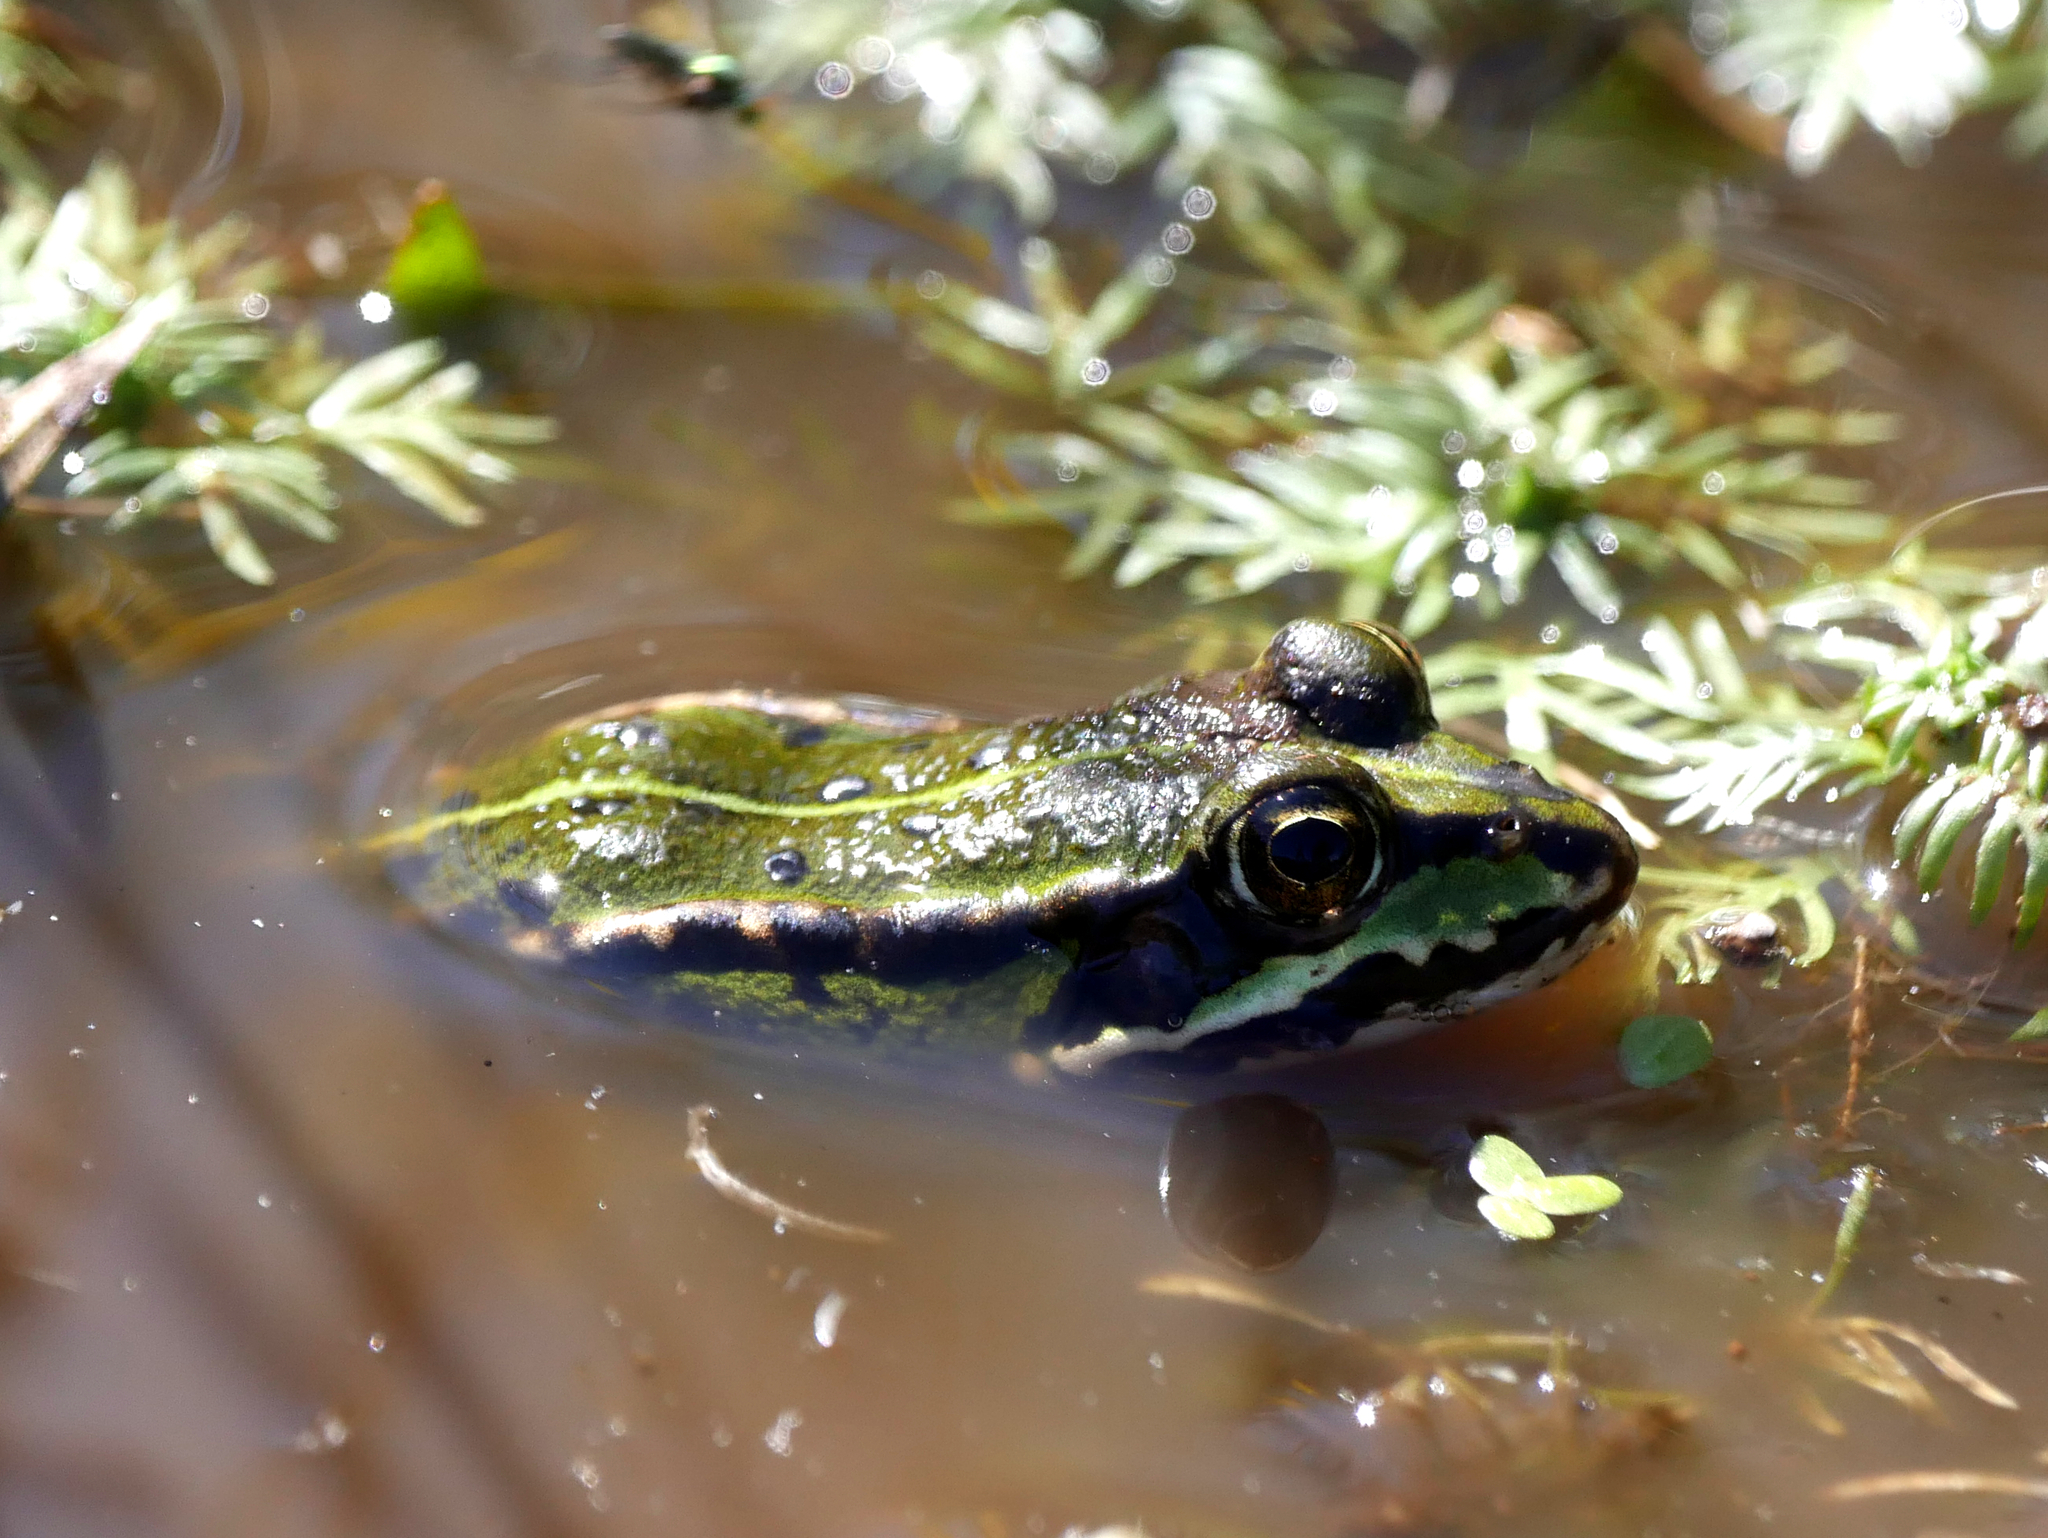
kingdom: Animalia
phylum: Chordata
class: Amphibia
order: Anura
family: Ranidae
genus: Pelophylax
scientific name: Pelophylax lessonae
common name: Pool frog
